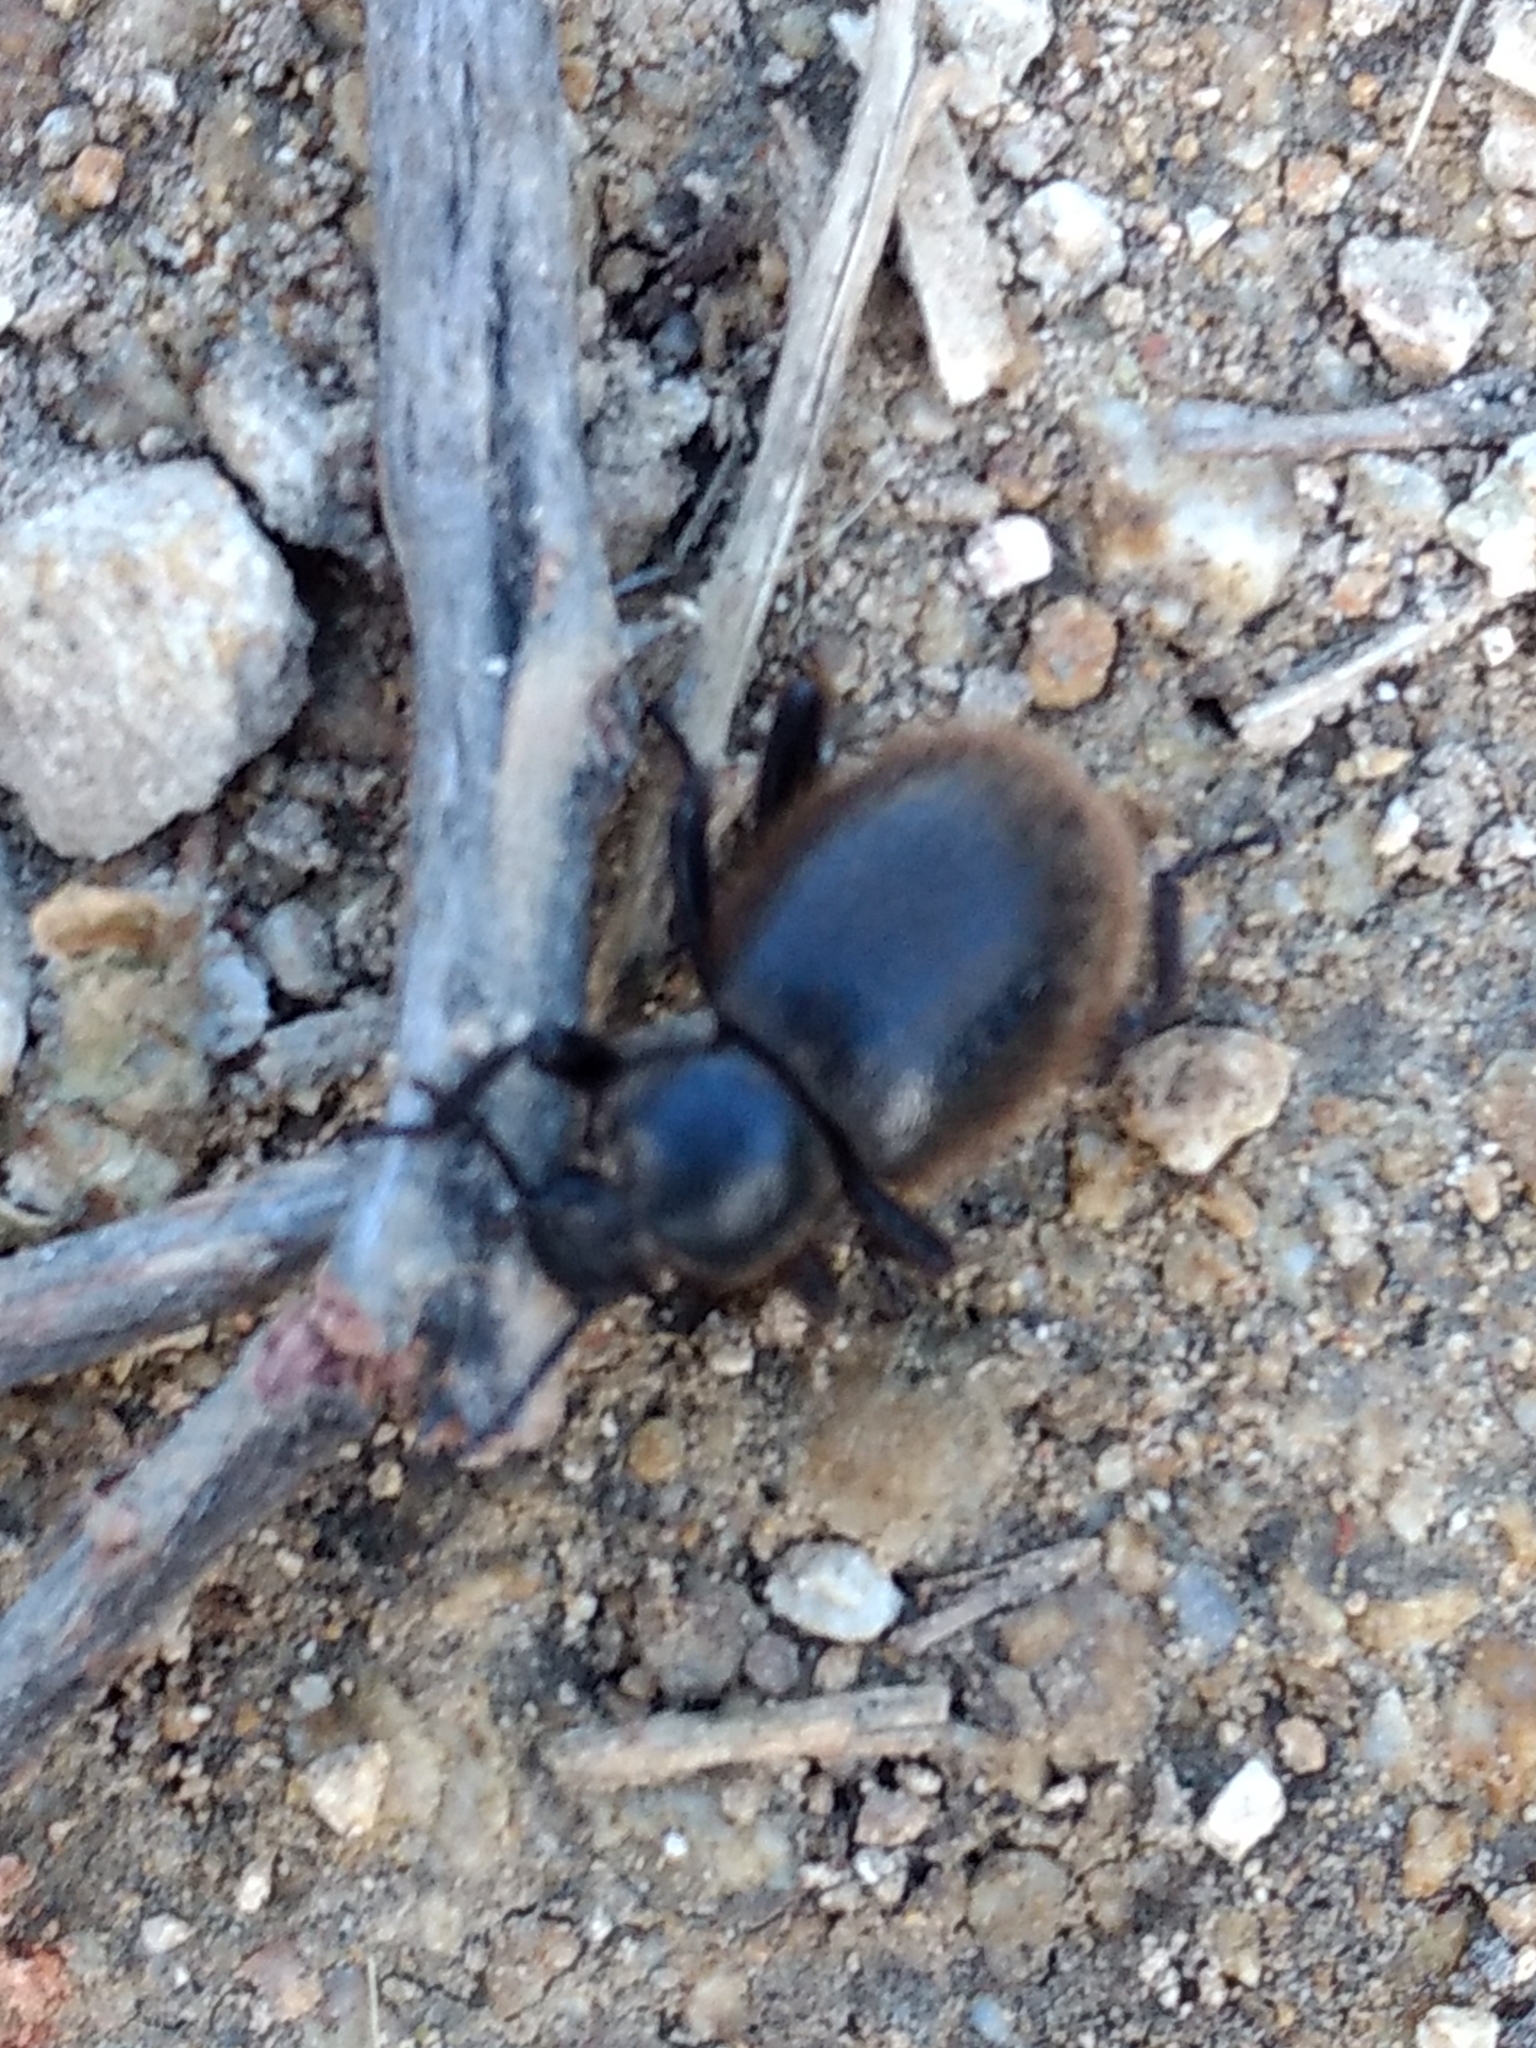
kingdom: Animalia
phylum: Arthropoda
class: Insecta
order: Coleoptera
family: Tenebrionidae
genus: Eleodes
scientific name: Eleodes osculans
